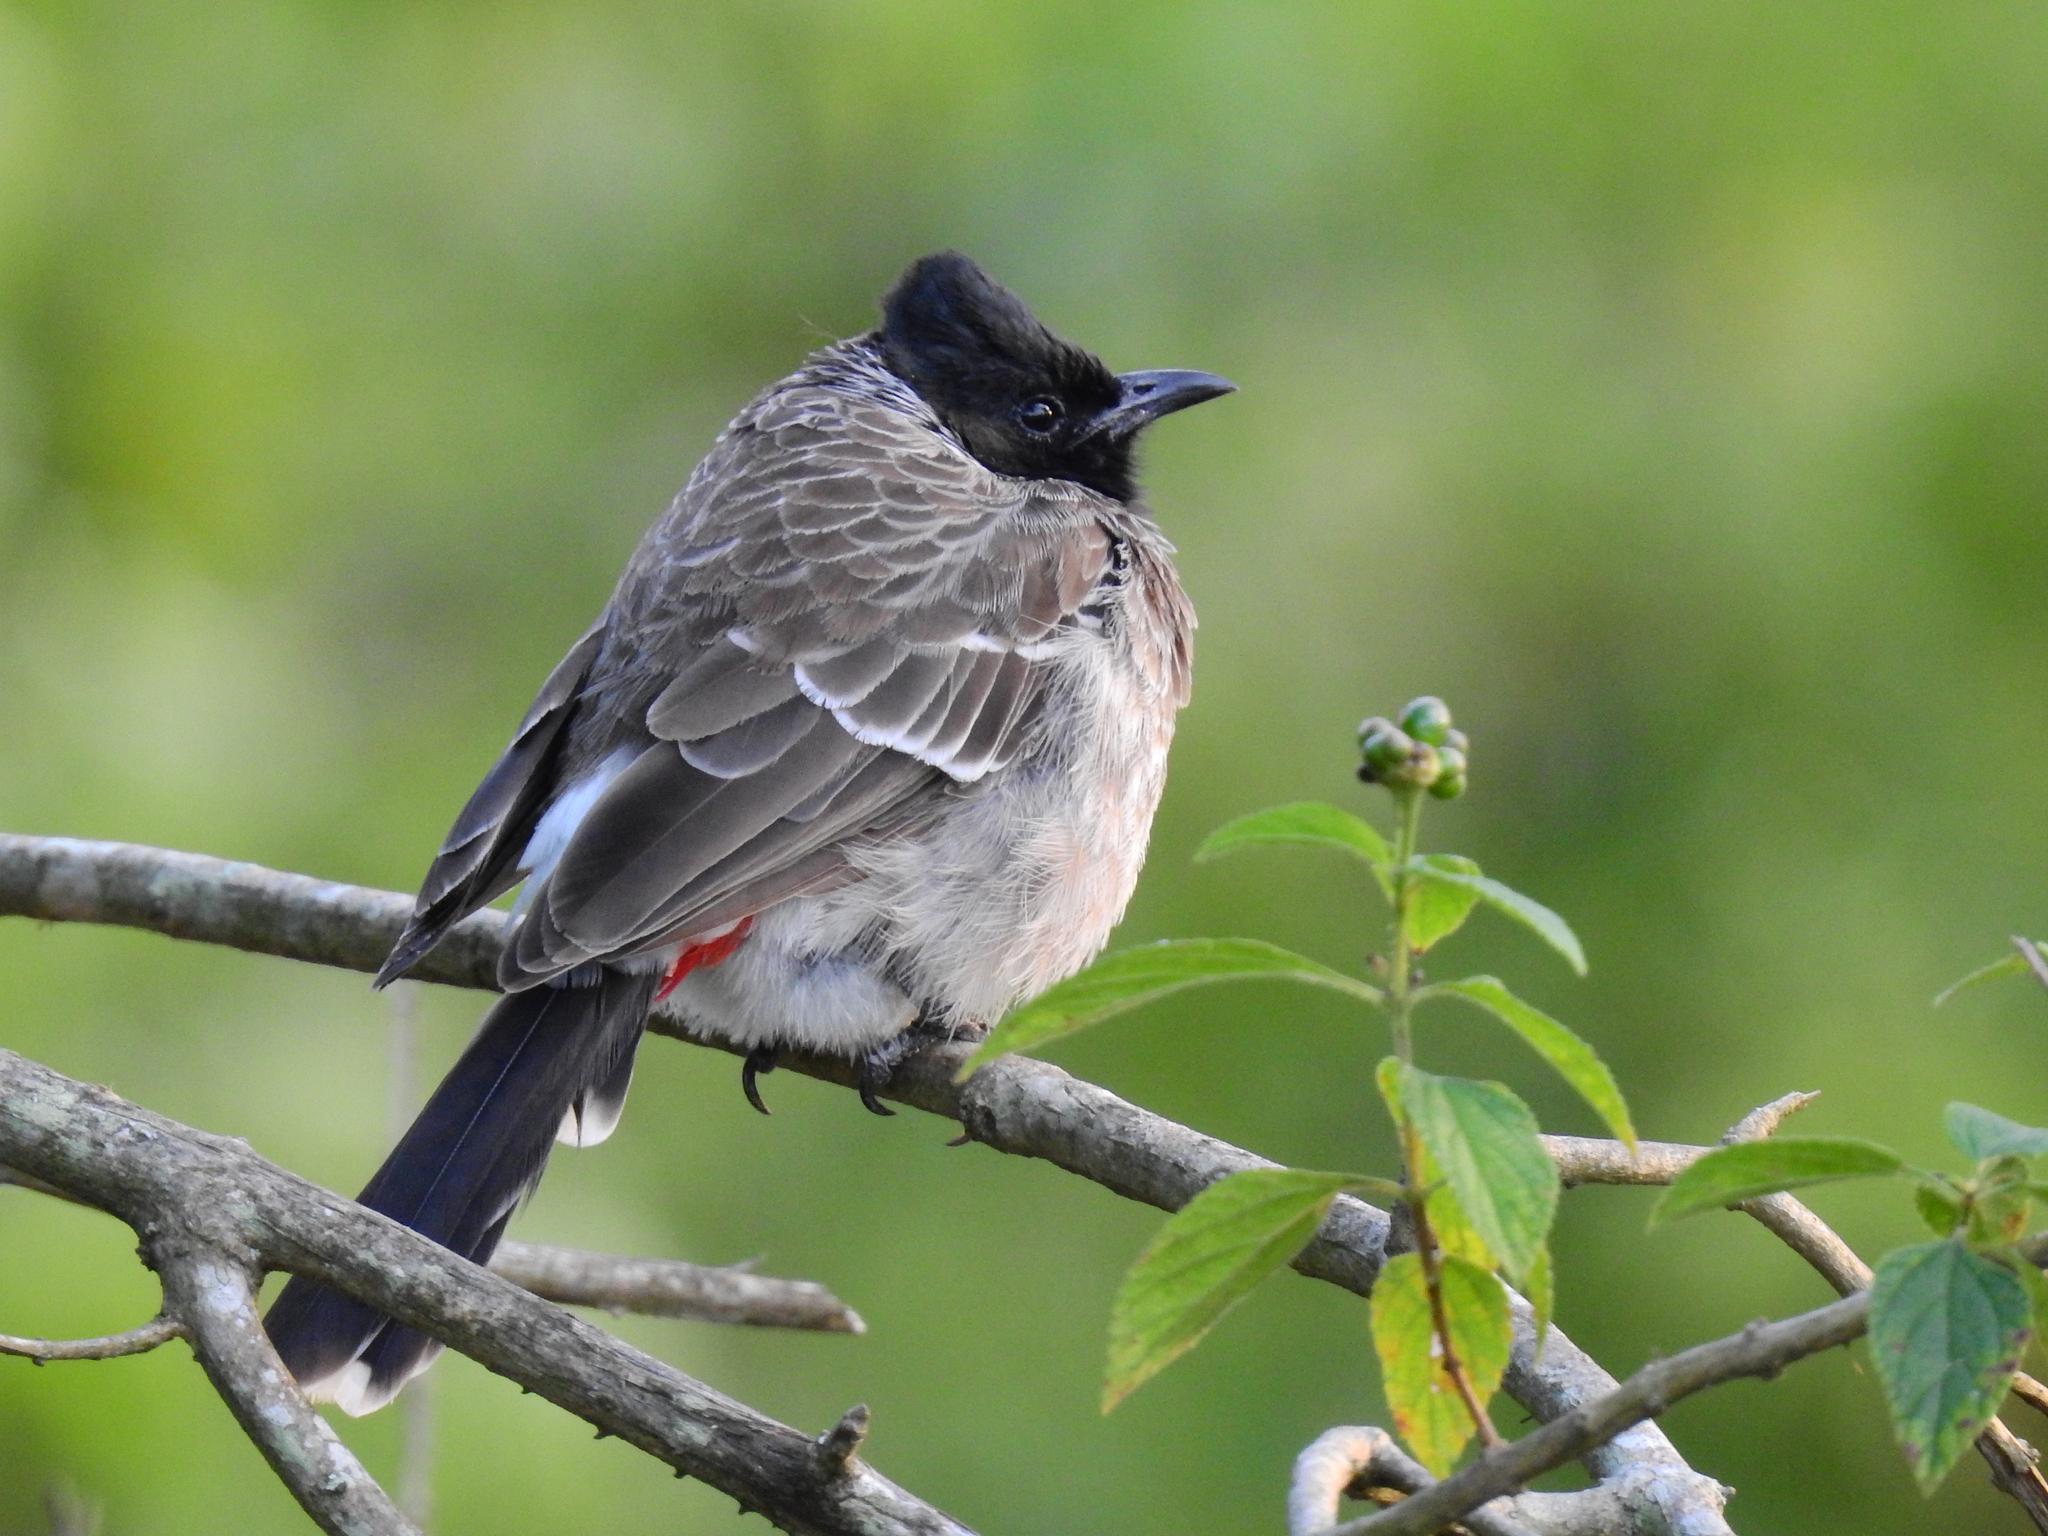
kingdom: Animalia
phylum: Chordata
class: Aves
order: Passeriformes
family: Pycnonotidae
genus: Pycnonotus
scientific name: Pycnonotus cafer
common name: Red-vented bulbul
